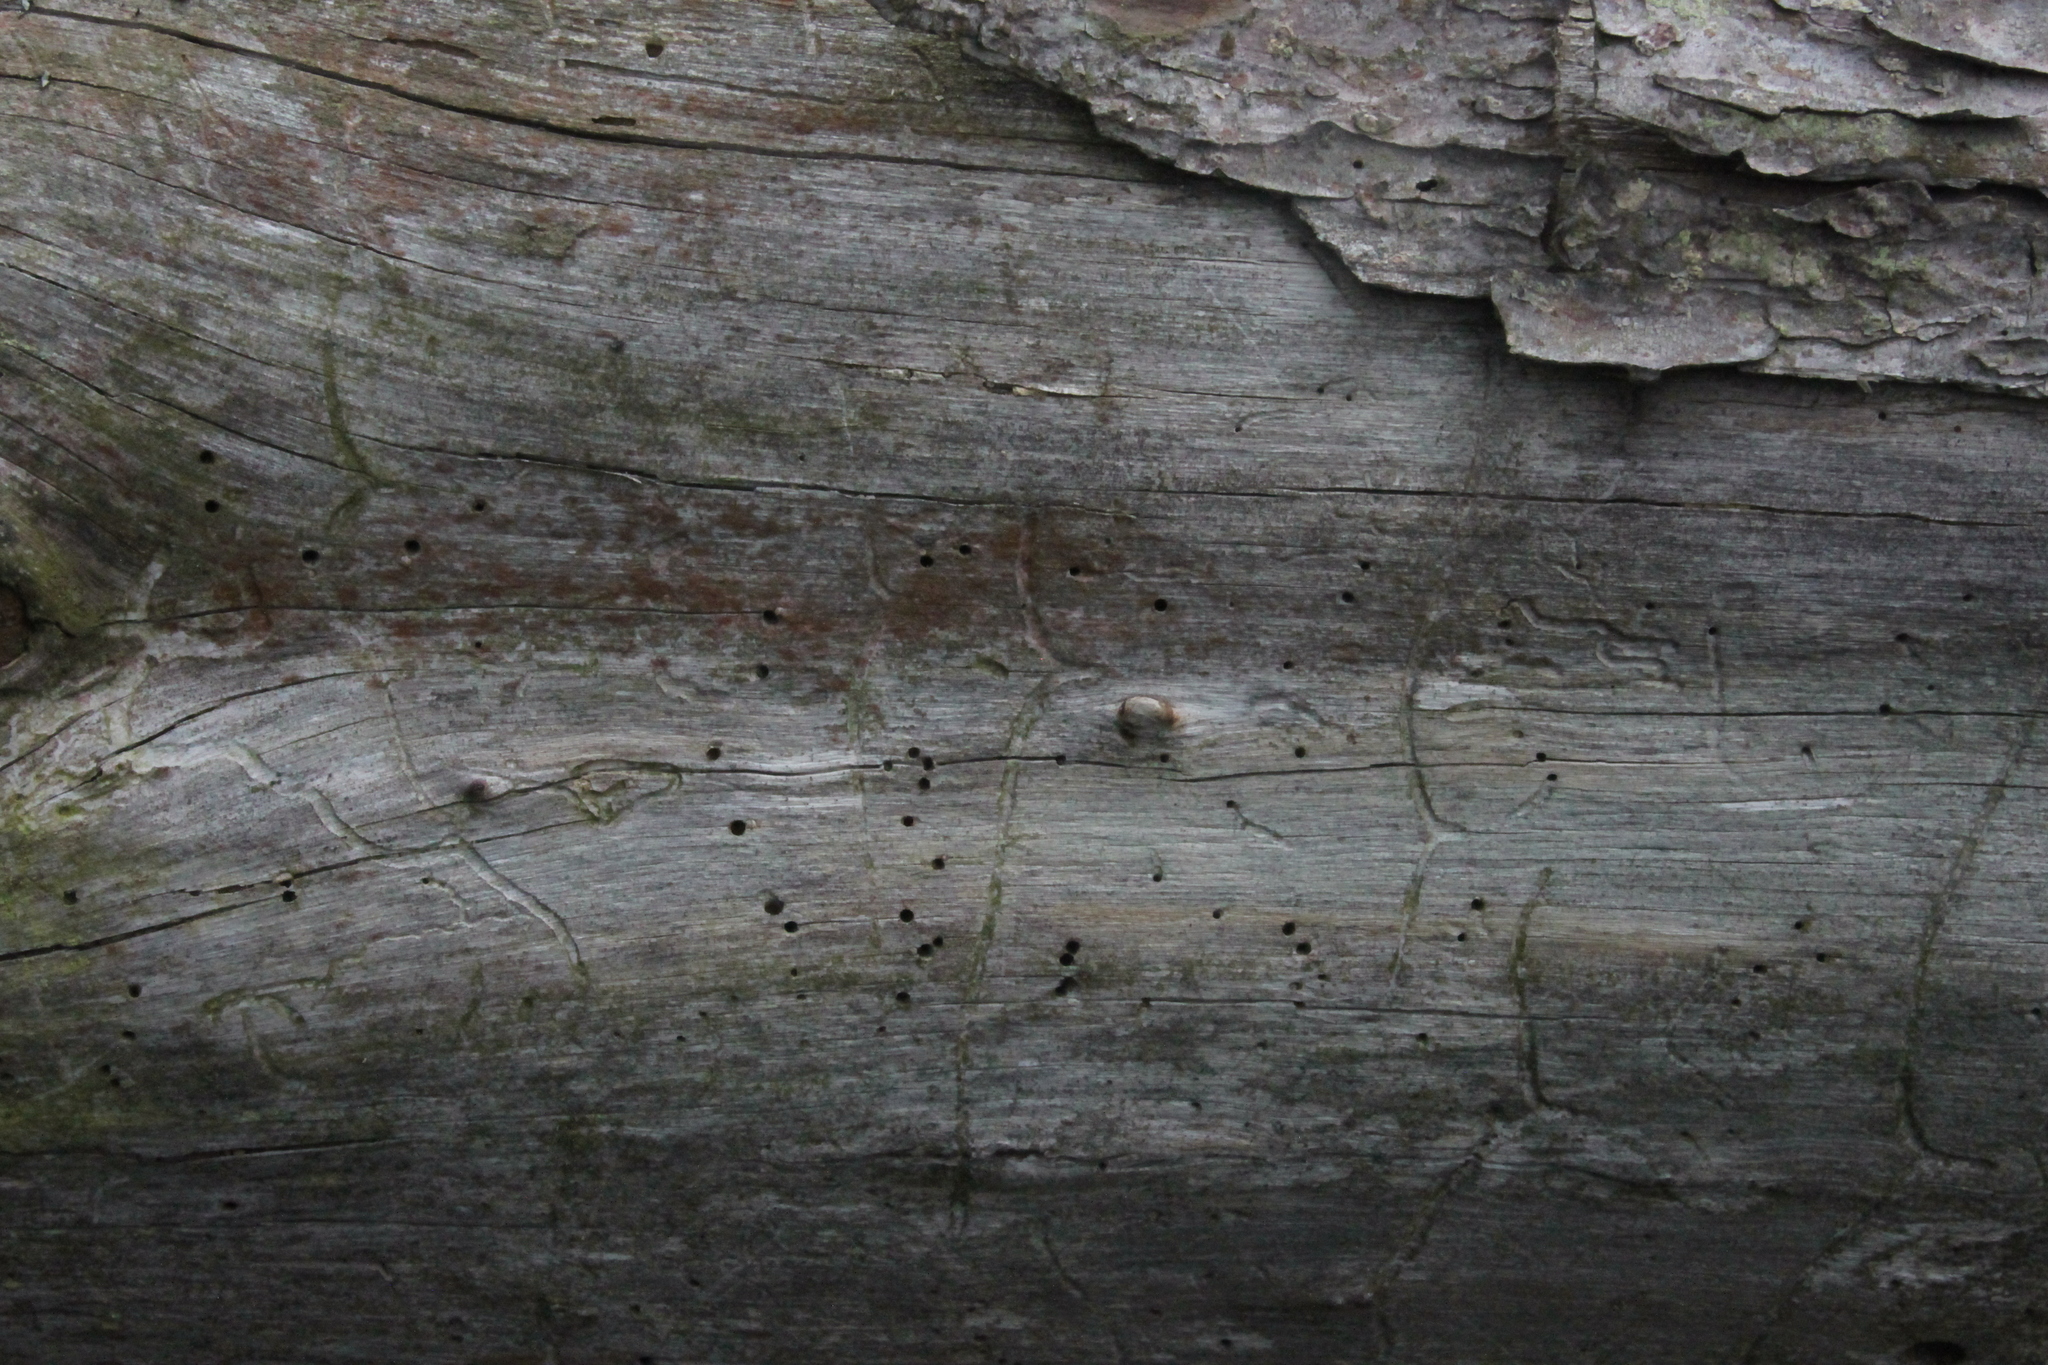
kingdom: Animalia
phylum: Arthropoda
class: Insecta
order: Coleoptera
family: Curculionidae
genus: Tomicus
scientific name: Tomicus minor
